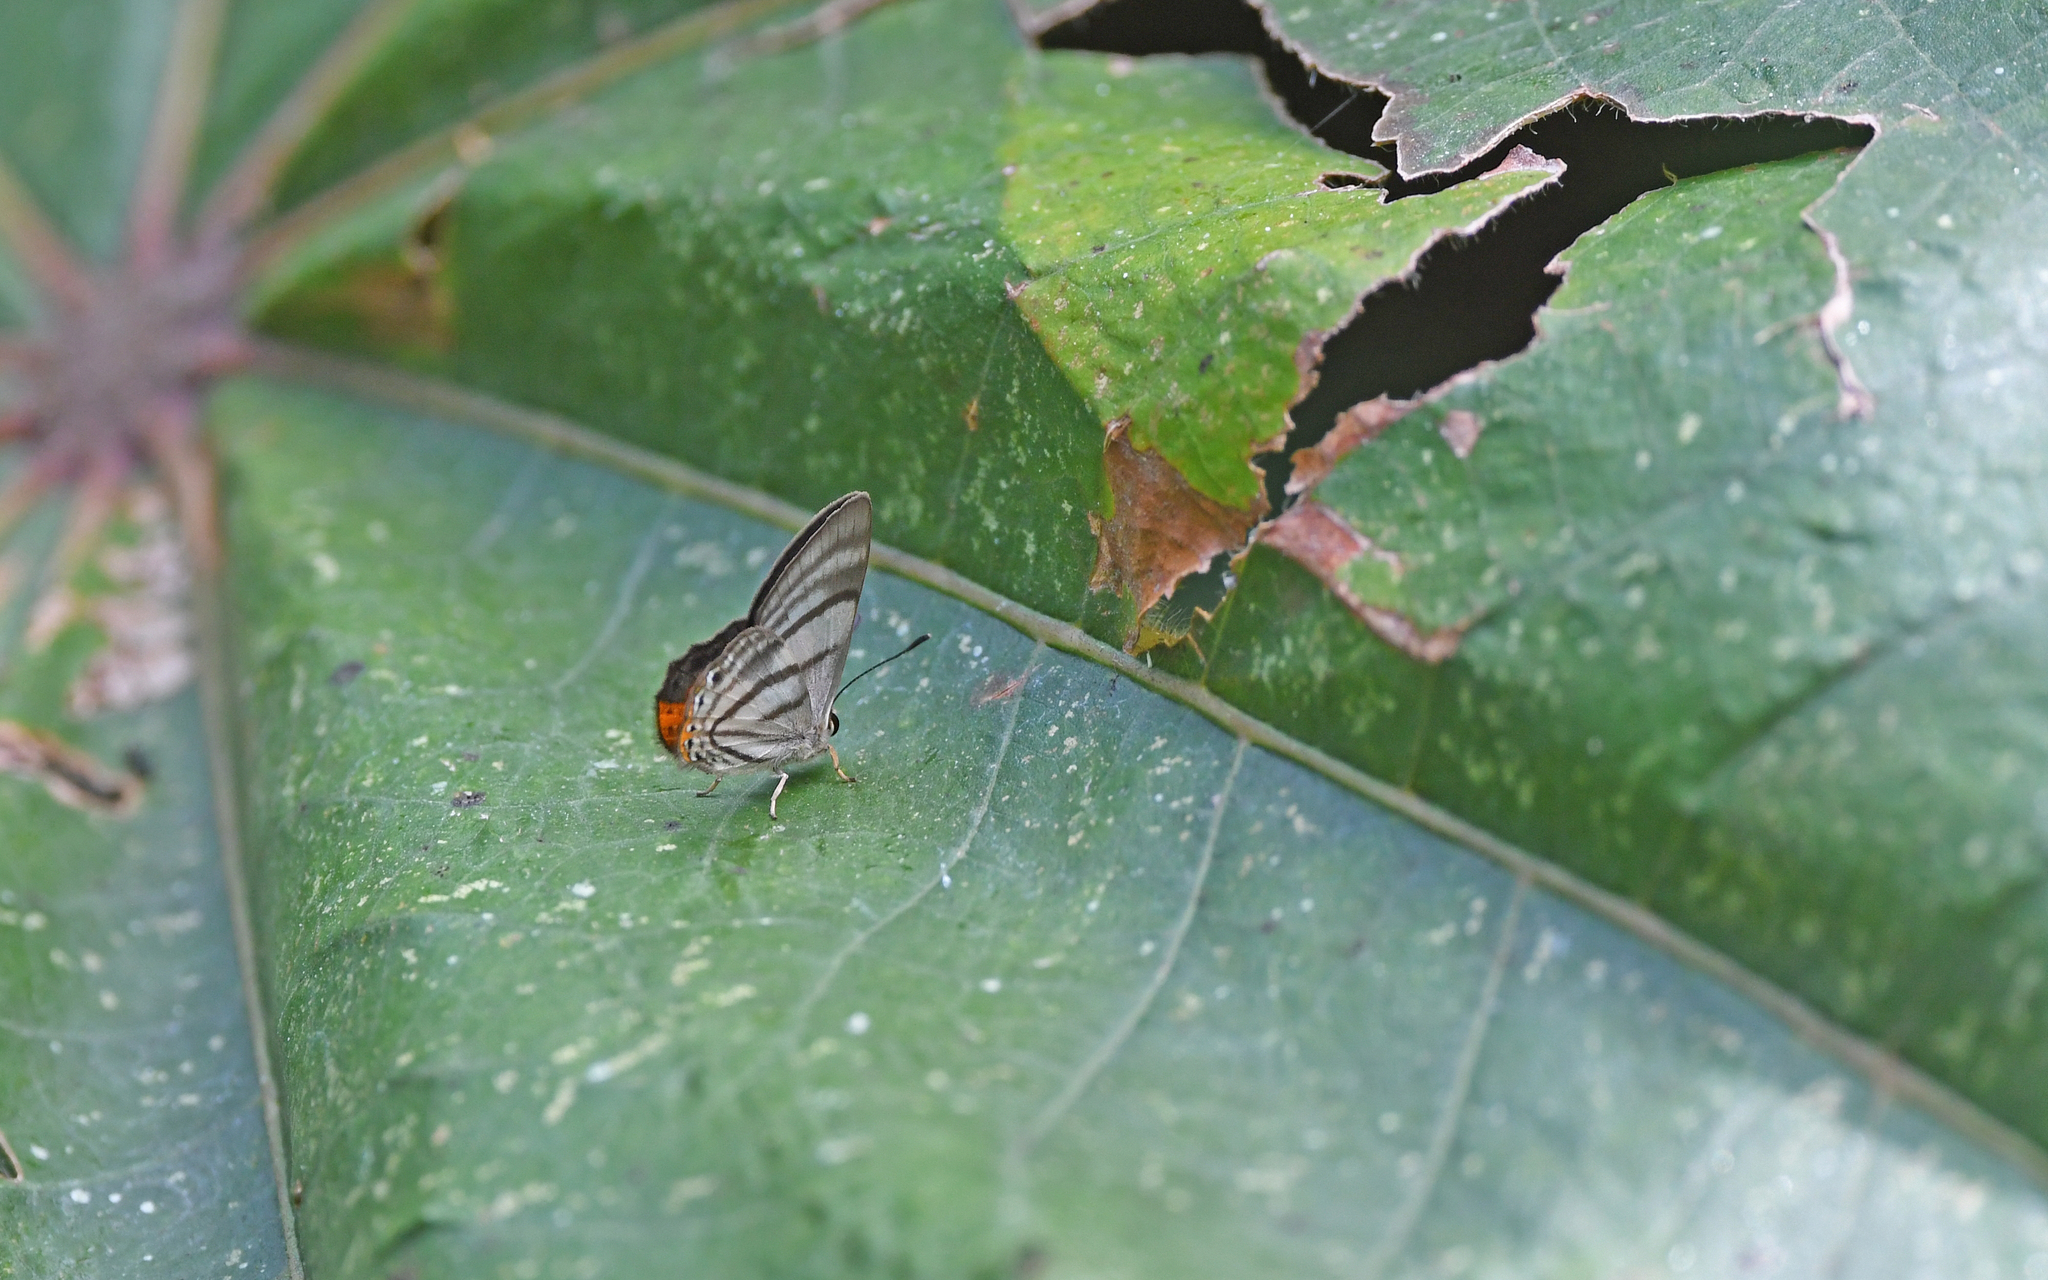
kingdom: Animalia
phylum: Arthropoda
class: Insecta
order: Lepidoptera
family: Lycaenidae
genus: Euselasia
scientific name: Euselasia fervida
